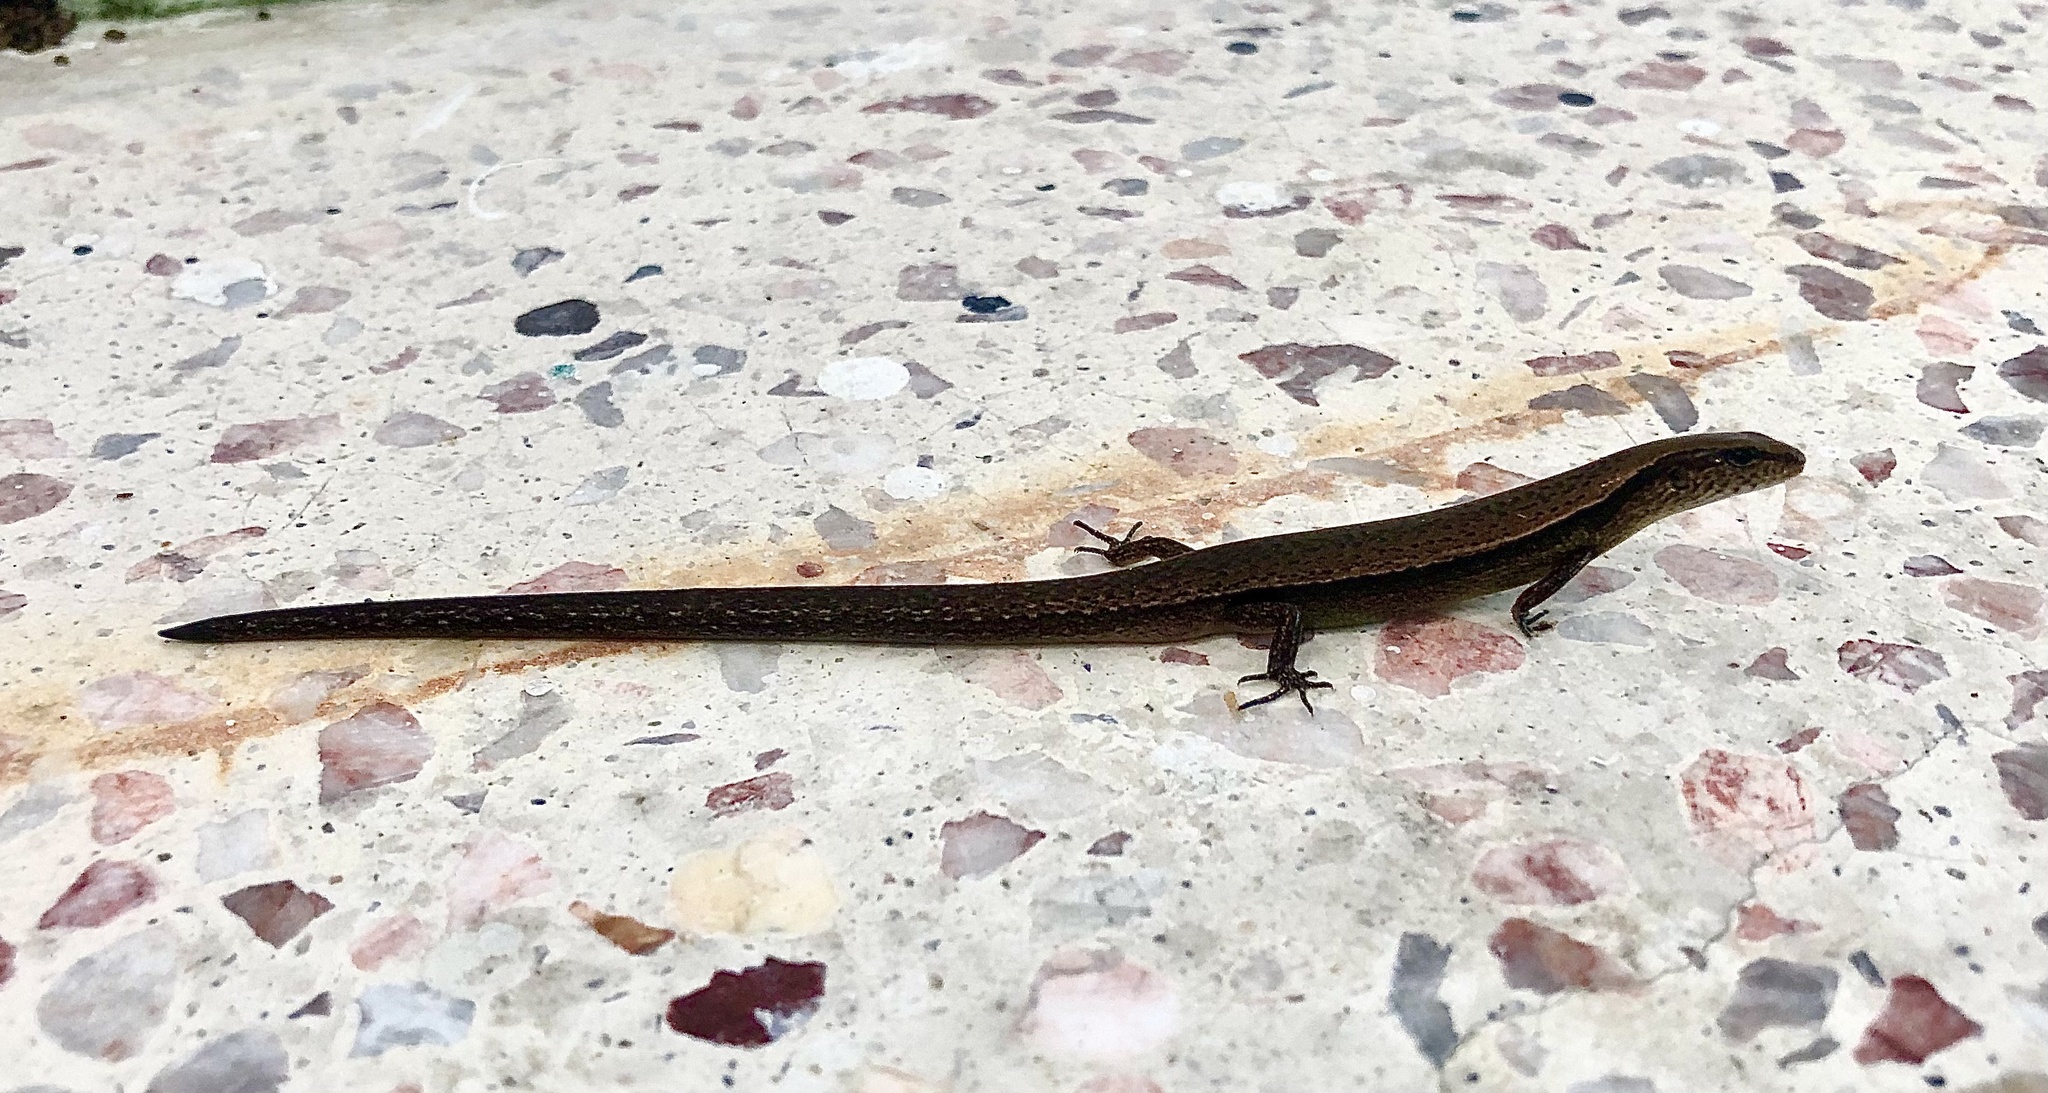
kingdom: Animalia
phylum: Chordata
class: Squamata
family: Scincidae
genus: Scincella
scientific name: Scincella silvicola
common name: Taylor’s ground skink
